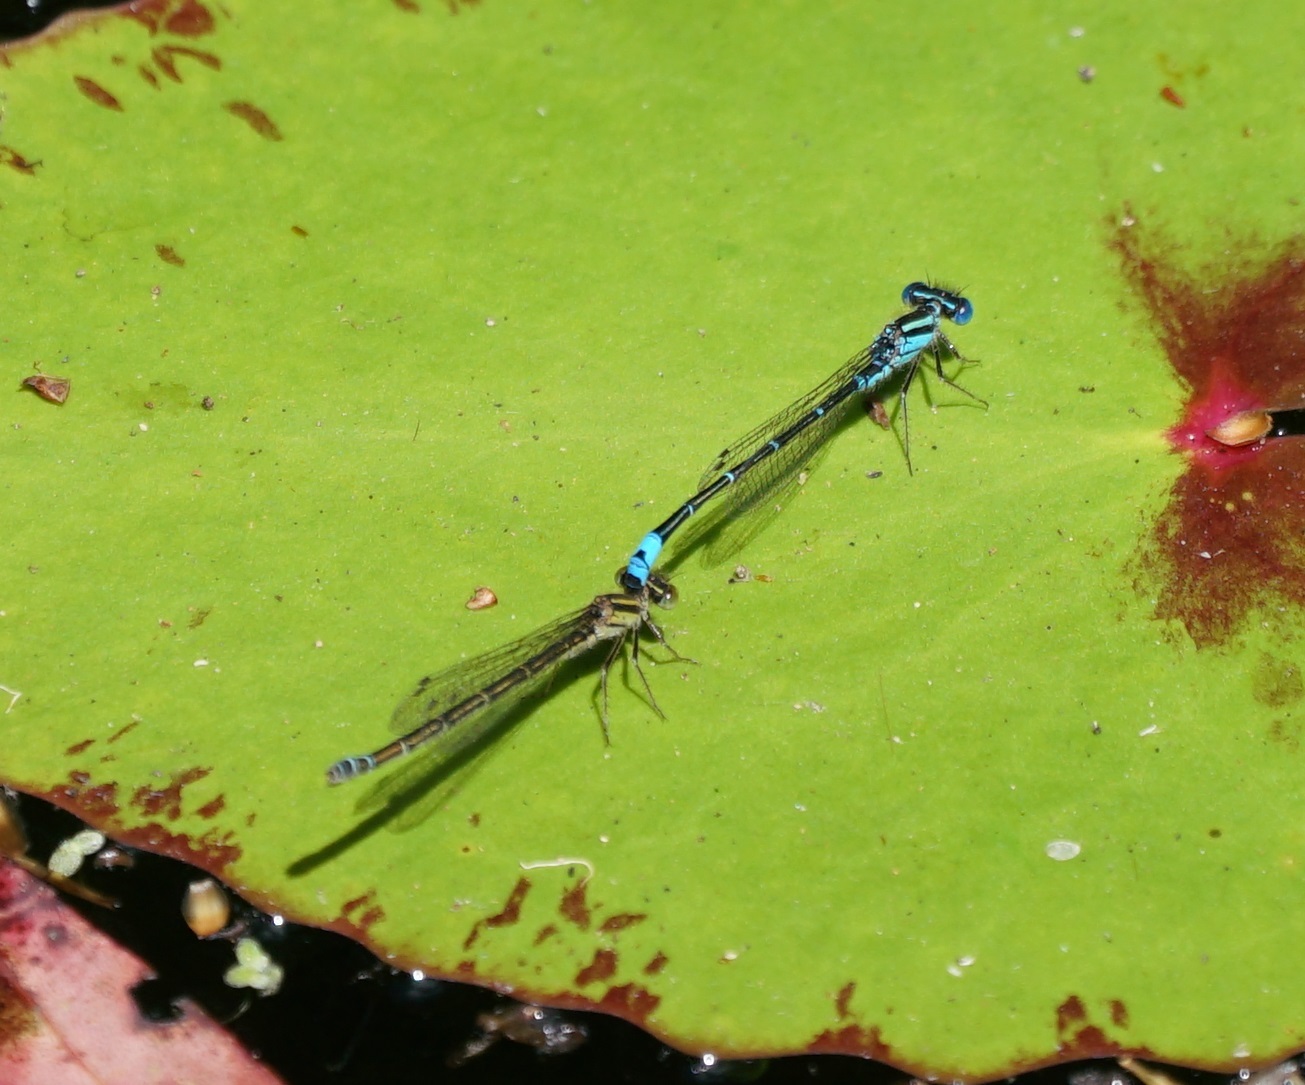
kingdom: Animalia
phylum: Arthropoda
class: Insecta
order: Odonata
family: Coenagrionidae
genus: Austroagrion
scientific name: Austroagrion watsoni
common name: Eastern billabongfly
